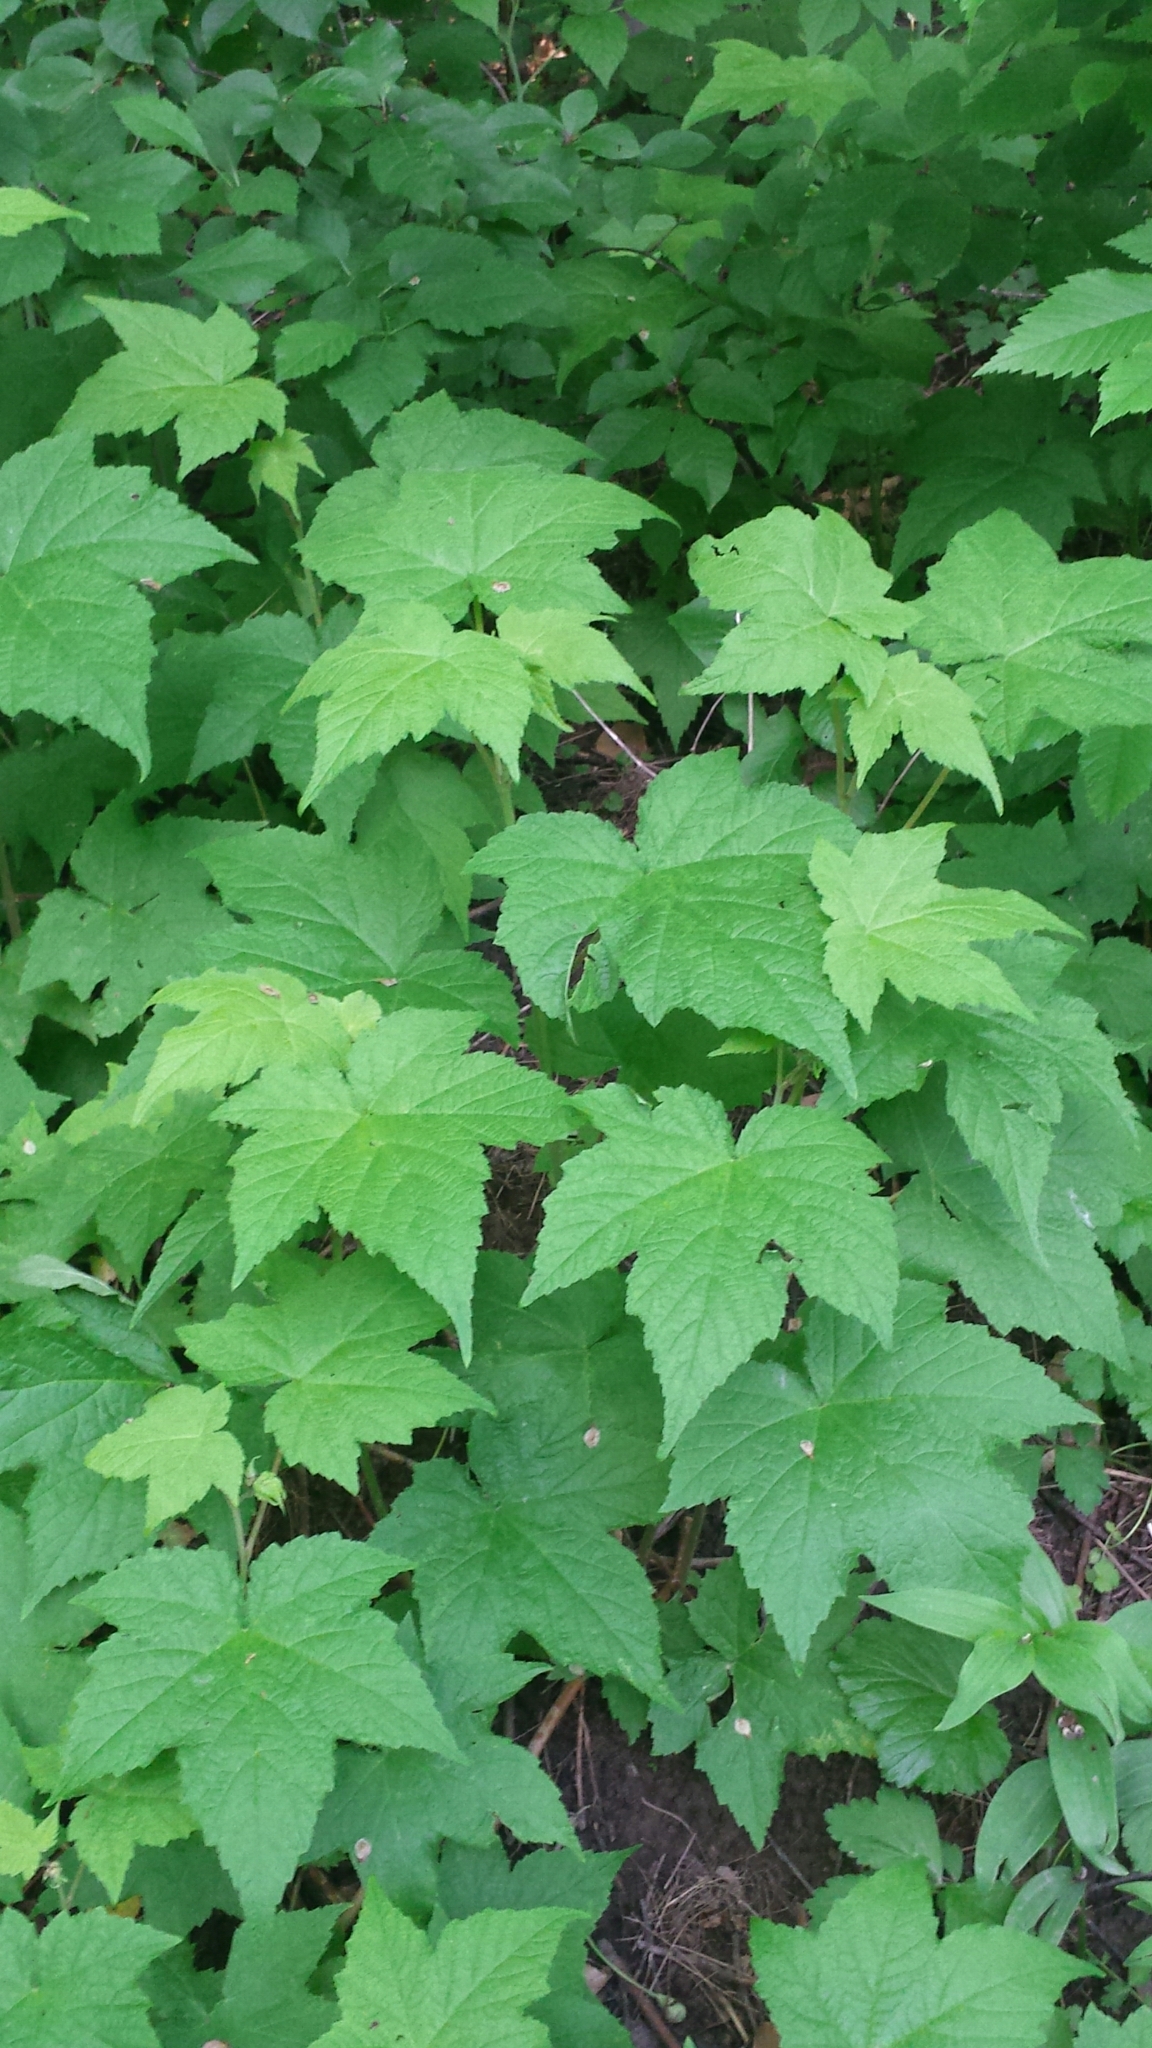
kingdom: Plantae
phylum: Tracheophyta
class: Magnoliopsida
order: Rosales
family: Rosaceae
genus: Rubus
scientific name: Rubus odoratus
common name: Purple-flowered raspberry
